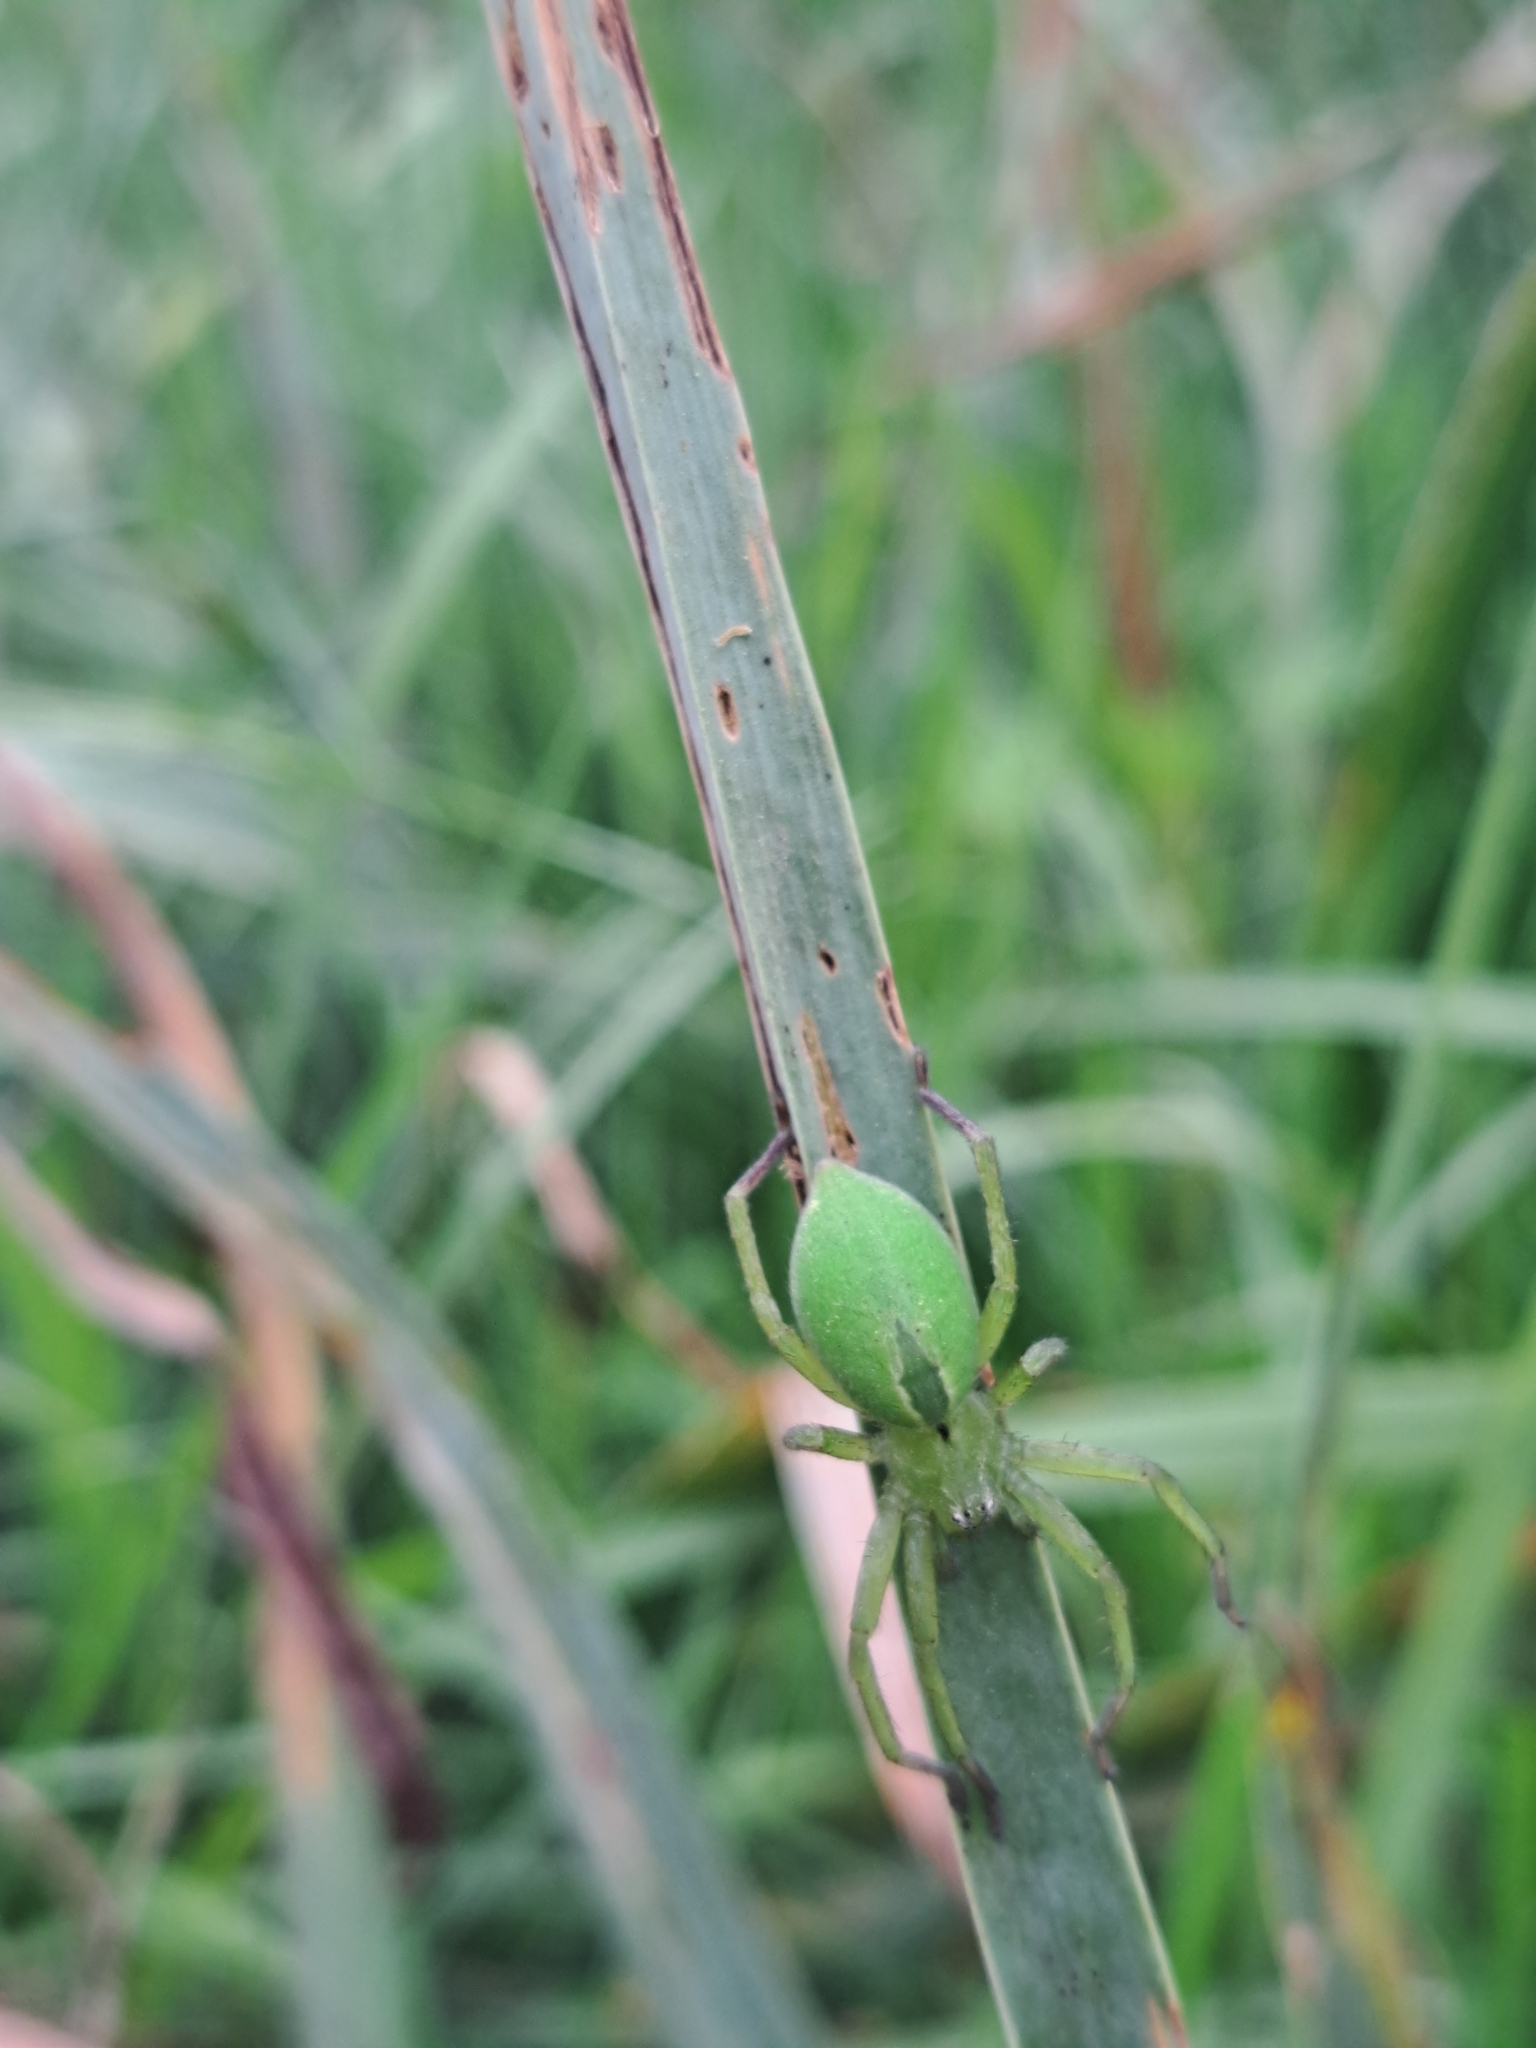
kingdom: Animalia
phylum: Arthropoda
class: Arachnida
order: Araneae
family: Sparassidae
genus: Micrommata
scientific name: Micrommata ligurina
